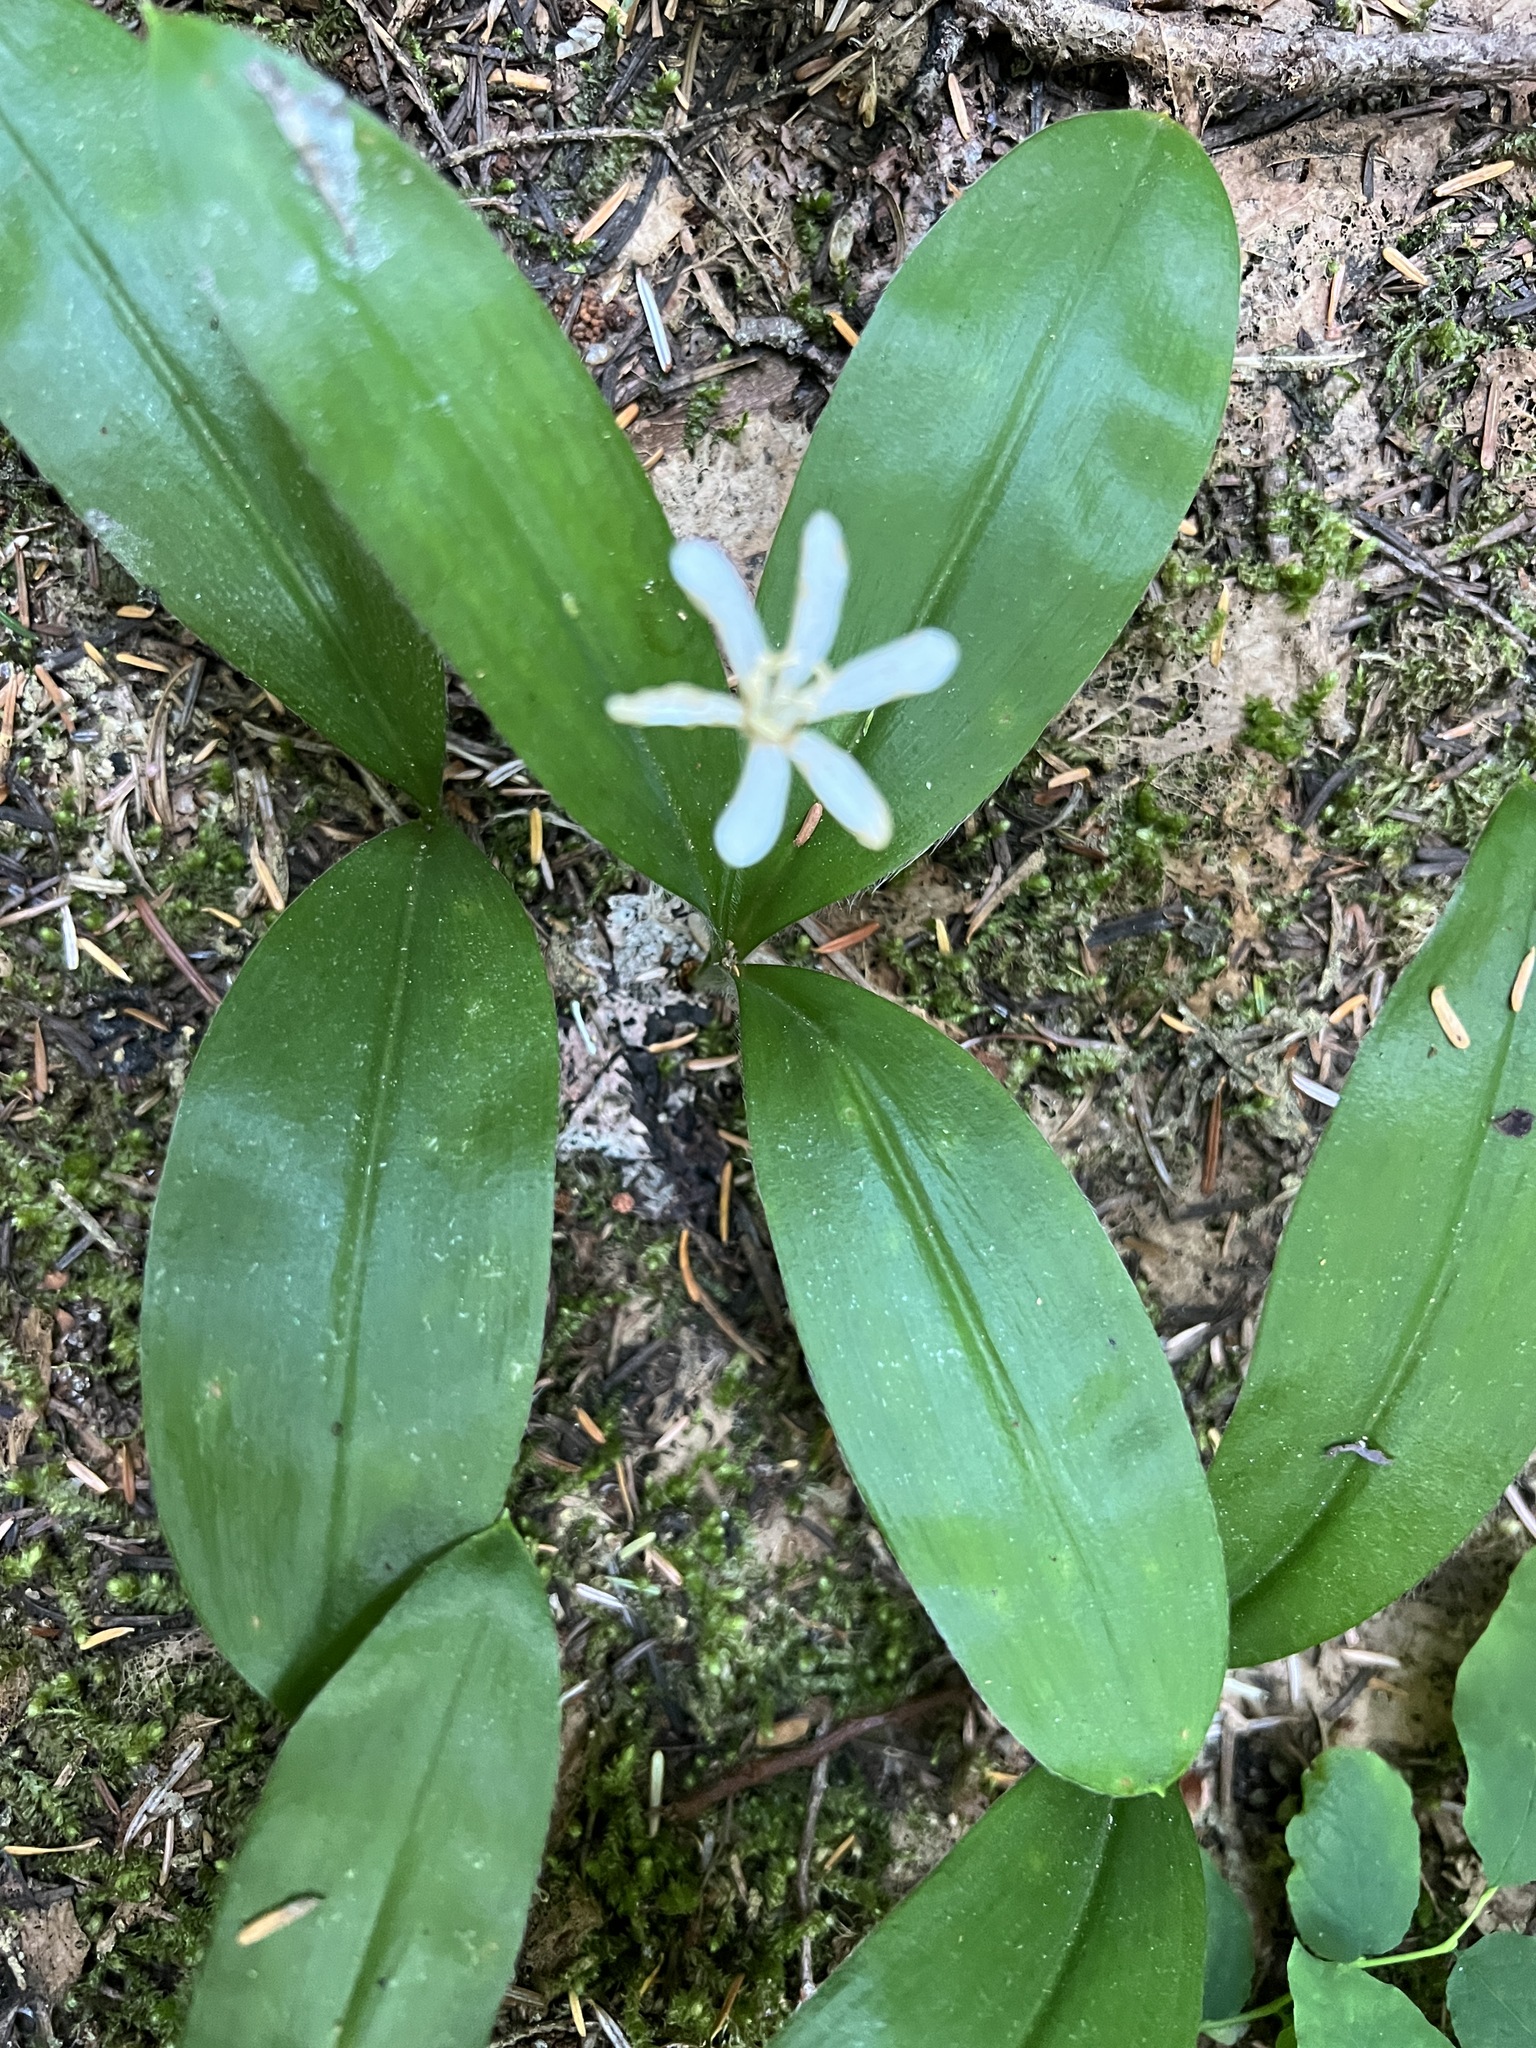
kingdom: Plantae
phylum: Tracheophyta
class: Liliopsida
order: Liliales
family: Liliaceae
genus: Clintonia
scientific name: Clintonia uniflora
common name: Queen's cup
